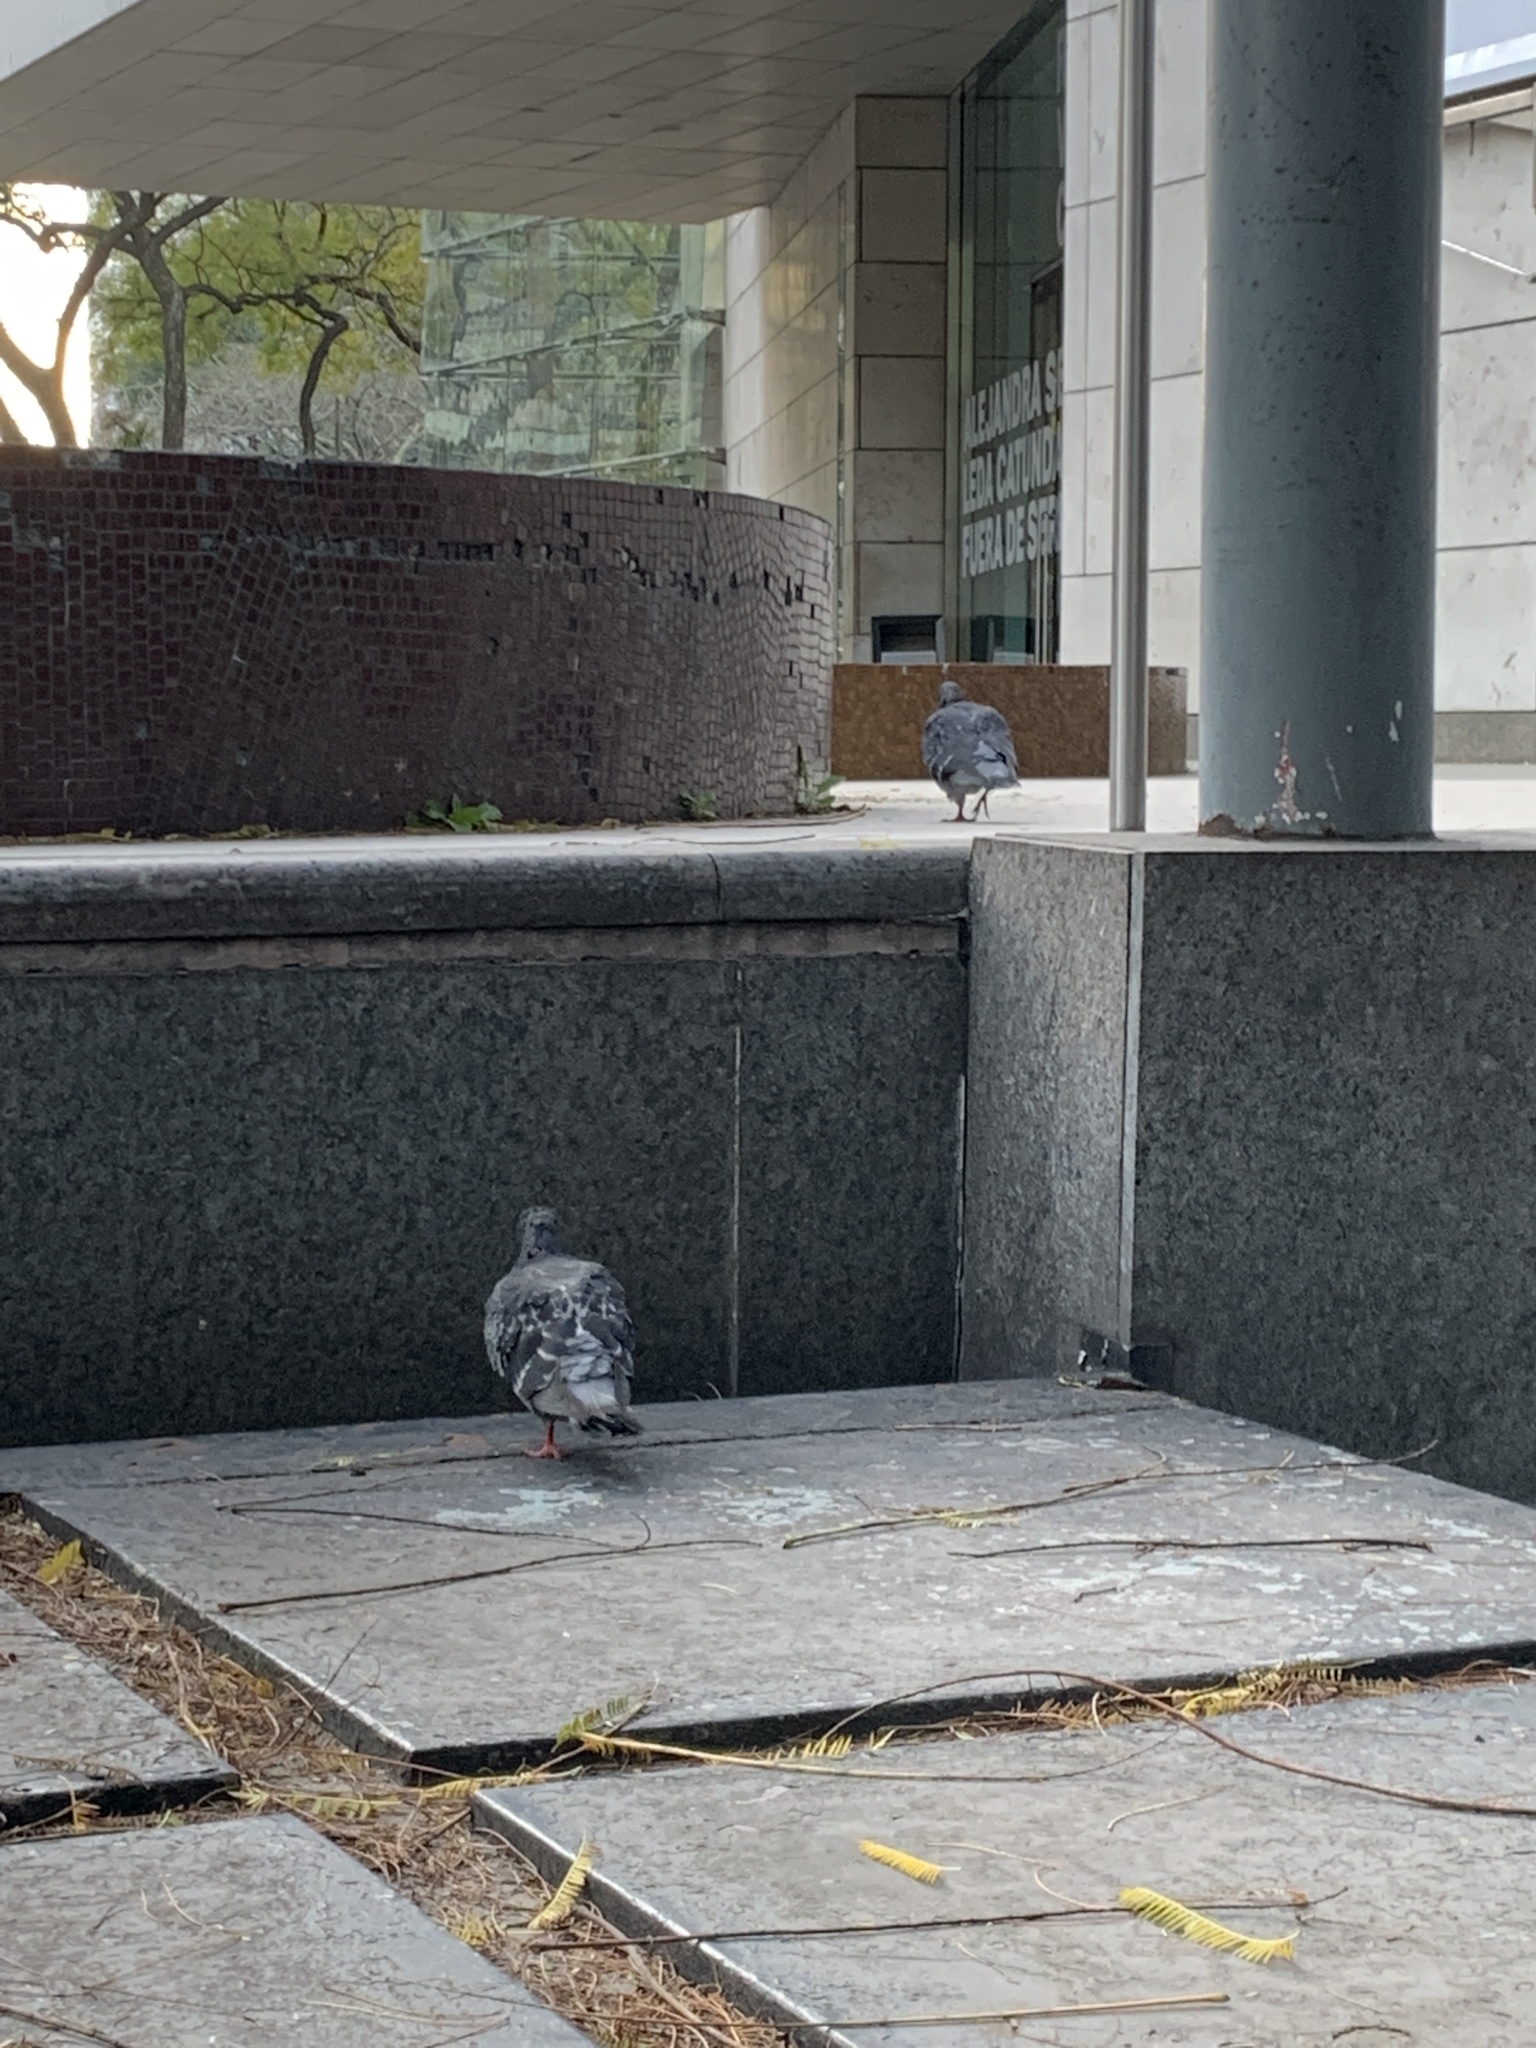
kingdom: Animalia
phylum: Chordata
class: Aves
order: Columbiformes
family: Columbidae
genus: Columba
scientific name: Columba livia
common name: Rock pigeon
